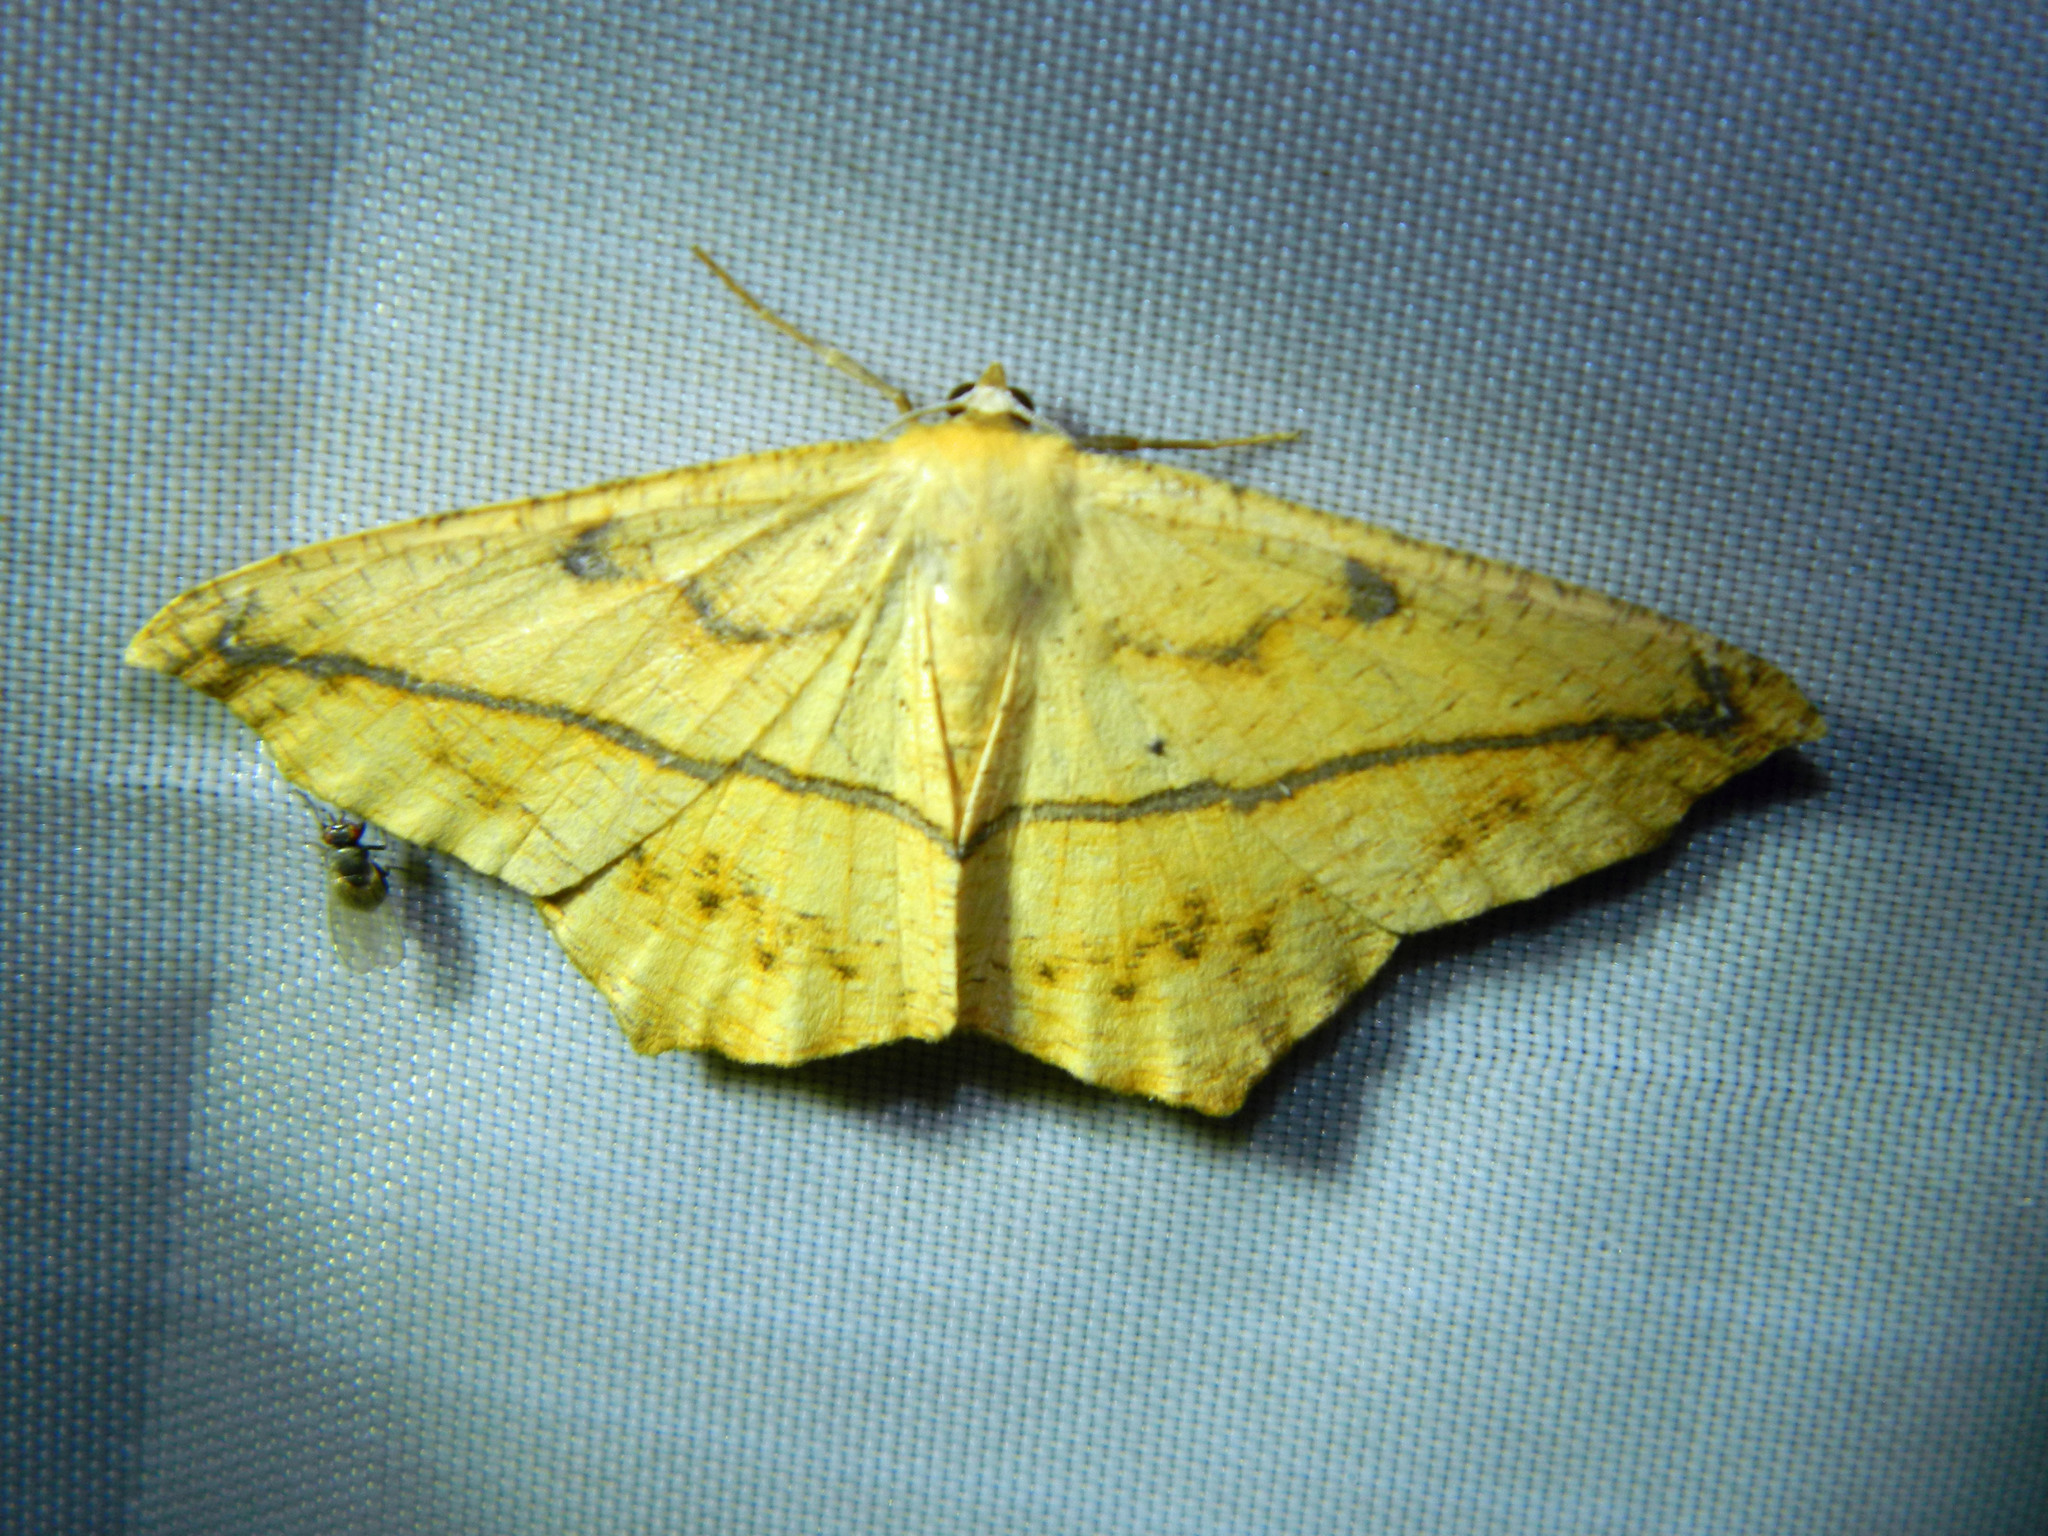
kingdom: Animalia
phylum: Arthropoda
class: Insecta
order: Lepidoptera
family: Geometridae
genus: Prochoerodes
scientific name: Prochoerodes lineola
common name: Large maple spanworm
